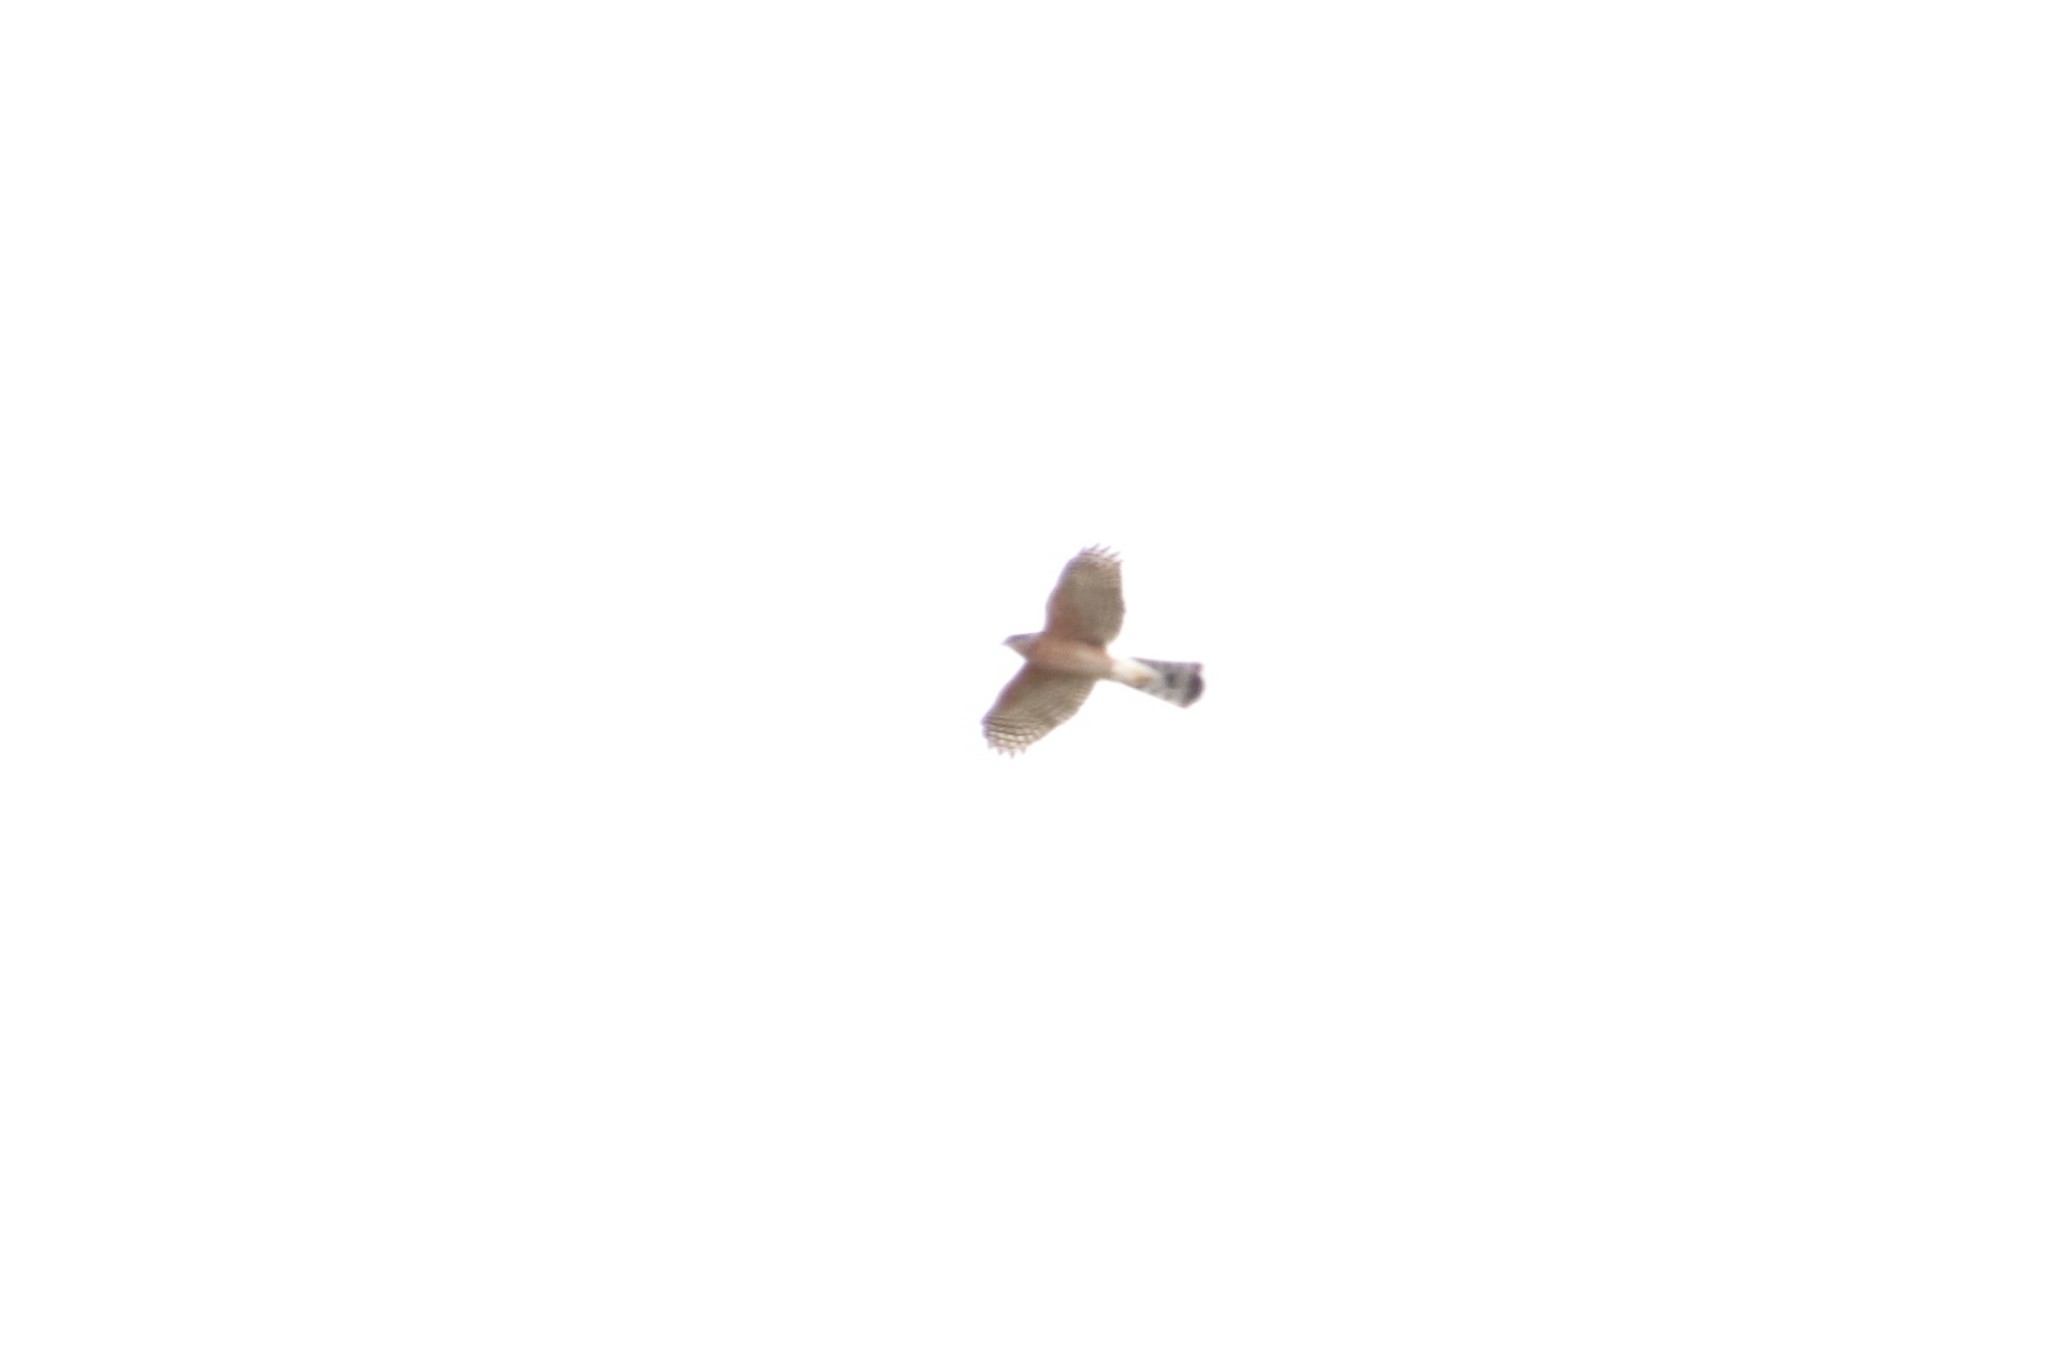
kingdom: Animalia
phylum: Chordata
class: Aves
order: Accipitriformes
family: Accipitridae
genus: Accipiter
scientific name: Accipiter cooperii
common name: Cooper's hawk
